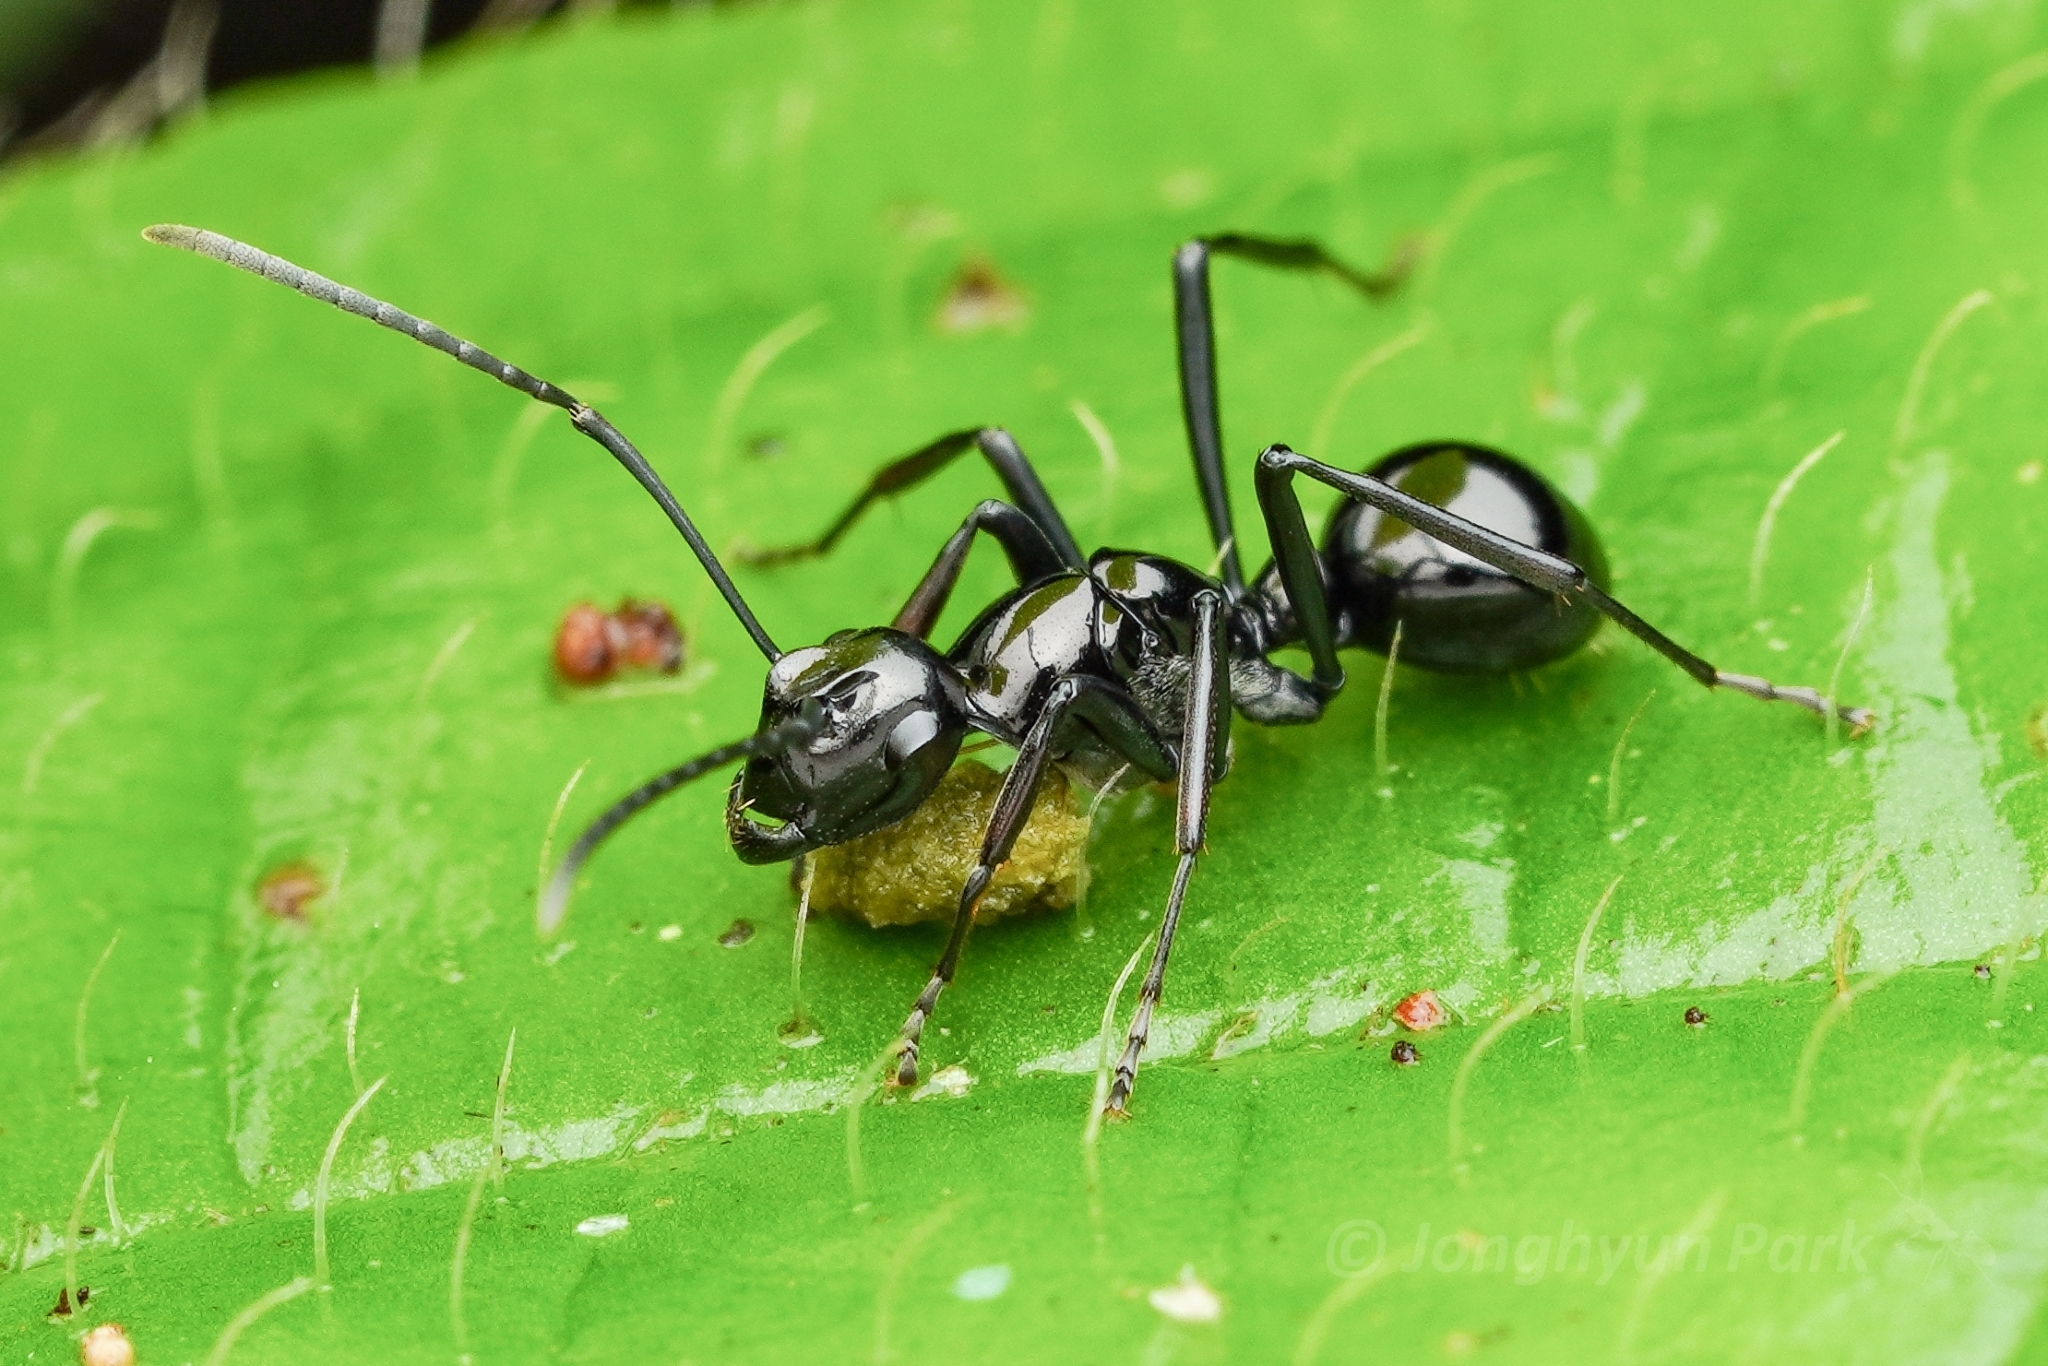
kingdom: Animalia
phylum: Arthropoda
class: Insecta
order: Hymenoptera
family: Formicidae
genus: Polyrhachis
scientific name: Polyrhachis boltoni
